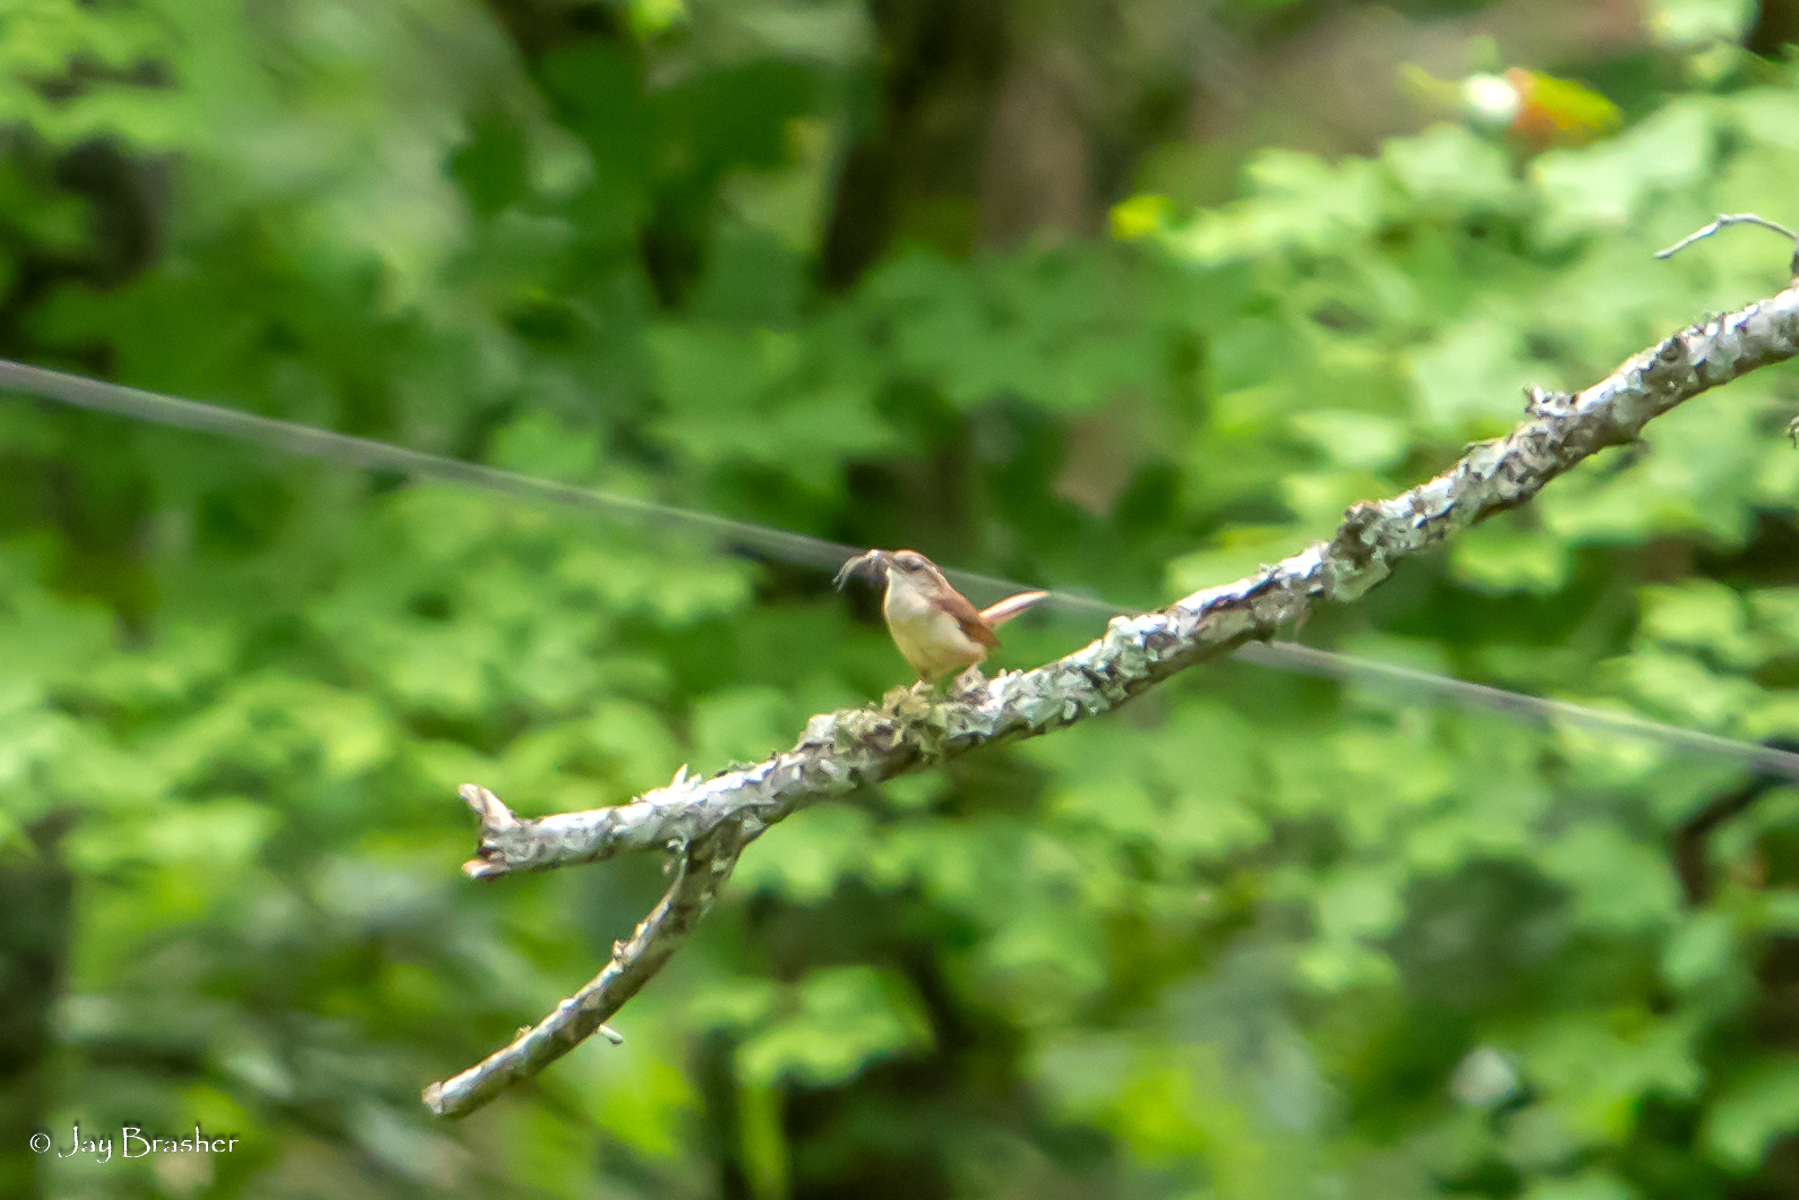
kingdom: Animalia
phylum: Chordata
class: Aves
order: Passeriformes
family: Troglodytidae
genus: Thryothorus
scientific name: Thryothorus ludovicianus
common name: Carolina wren
